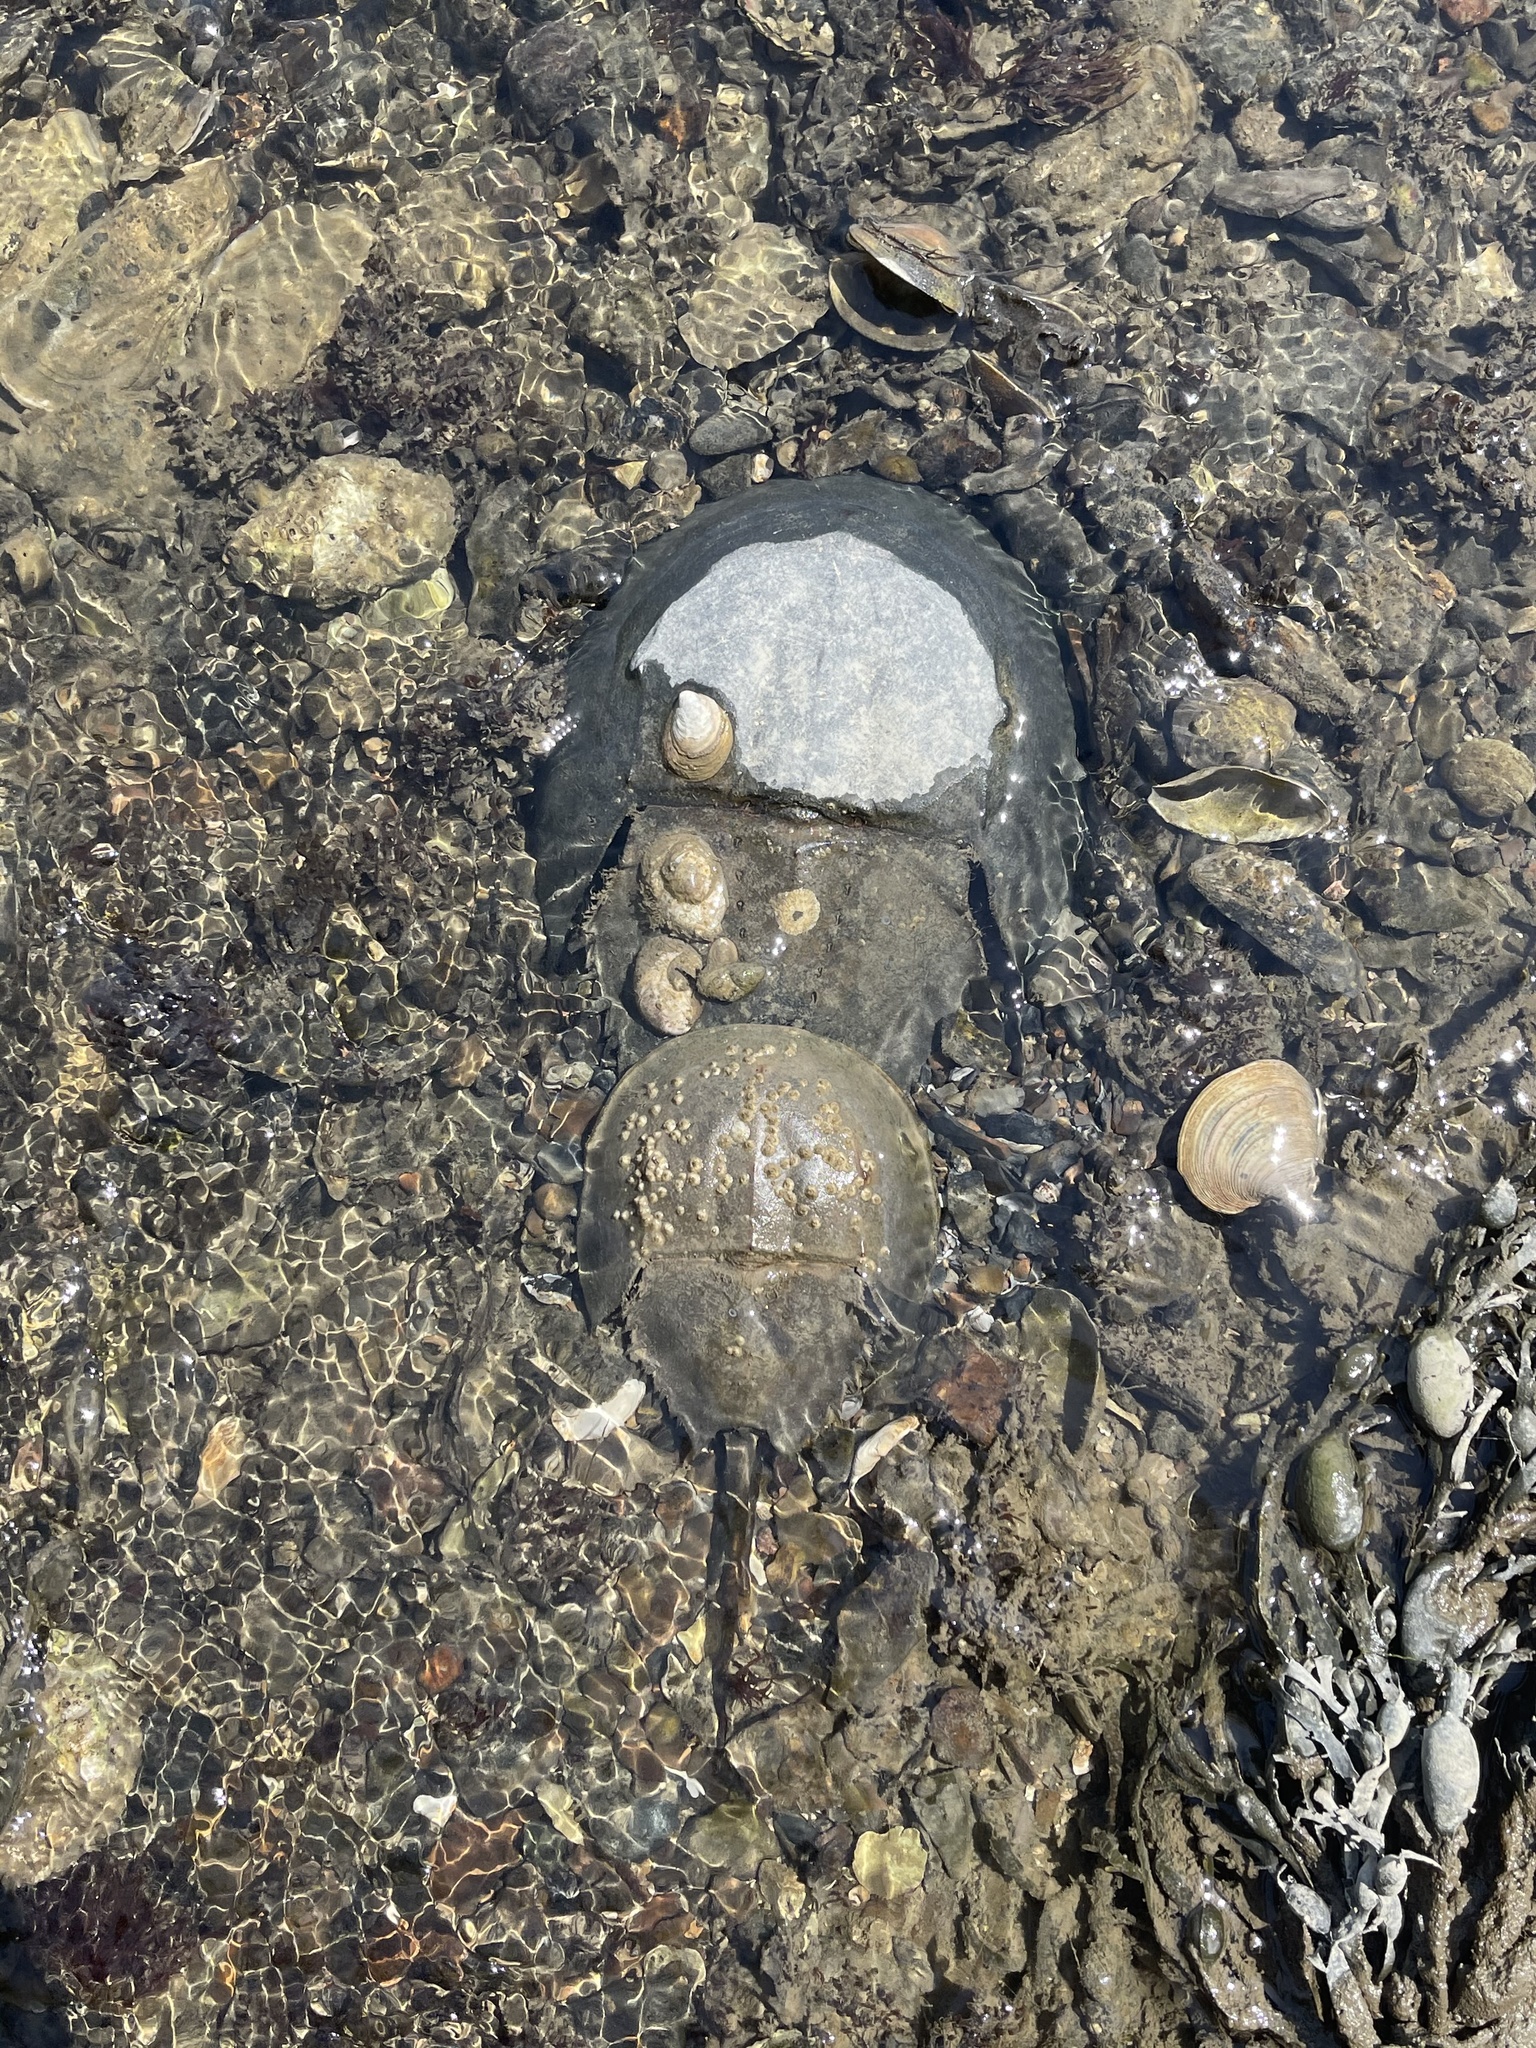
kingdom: Animalia
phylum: Arthropoda
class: Merostomata
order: Xiphosurida
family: Limulidae
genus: Limulus
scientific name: Limulus polyphemus
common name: Horseshoe crab
